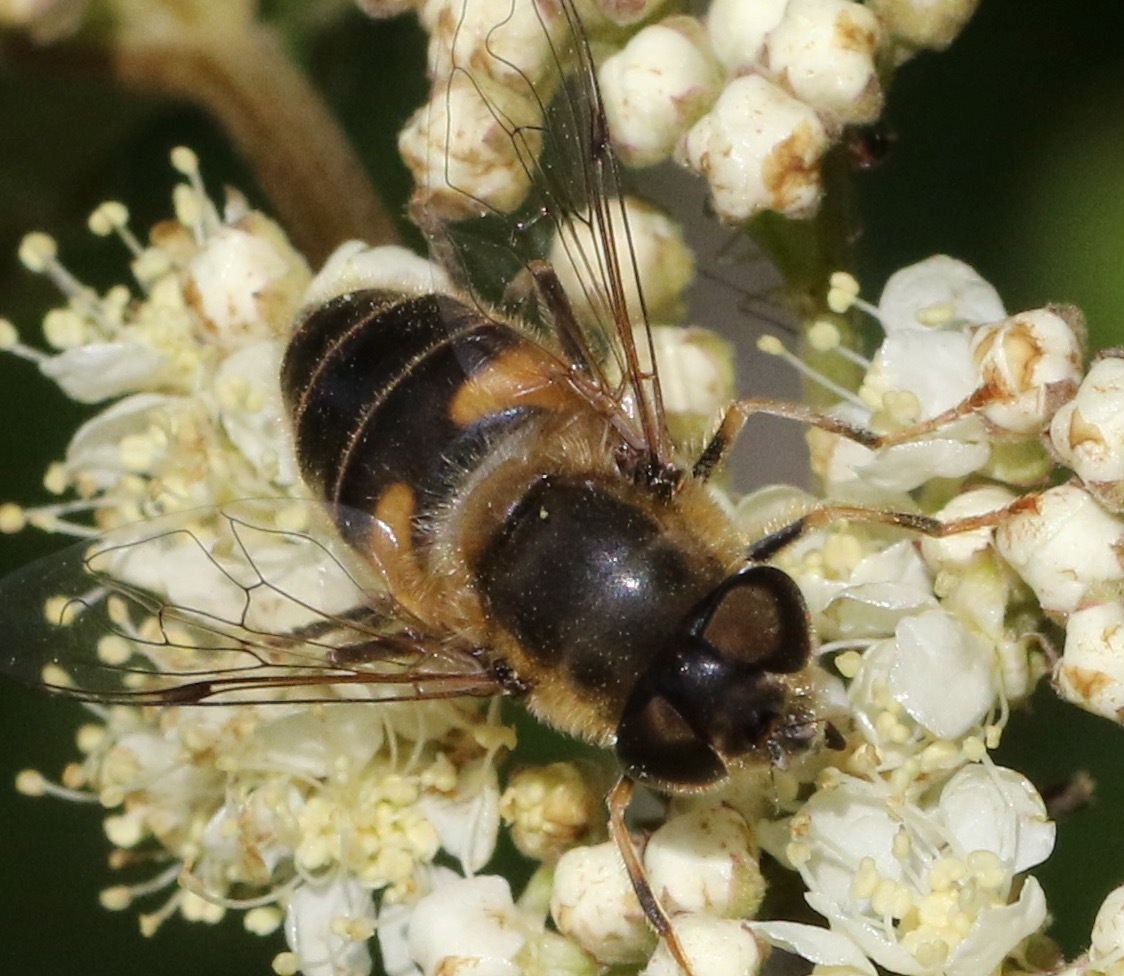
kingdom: Animalia
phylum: Arthropoda
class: Insecta
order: Diptera
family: Syrphidae
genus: Eristalis
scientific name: Eristalis pertinax
